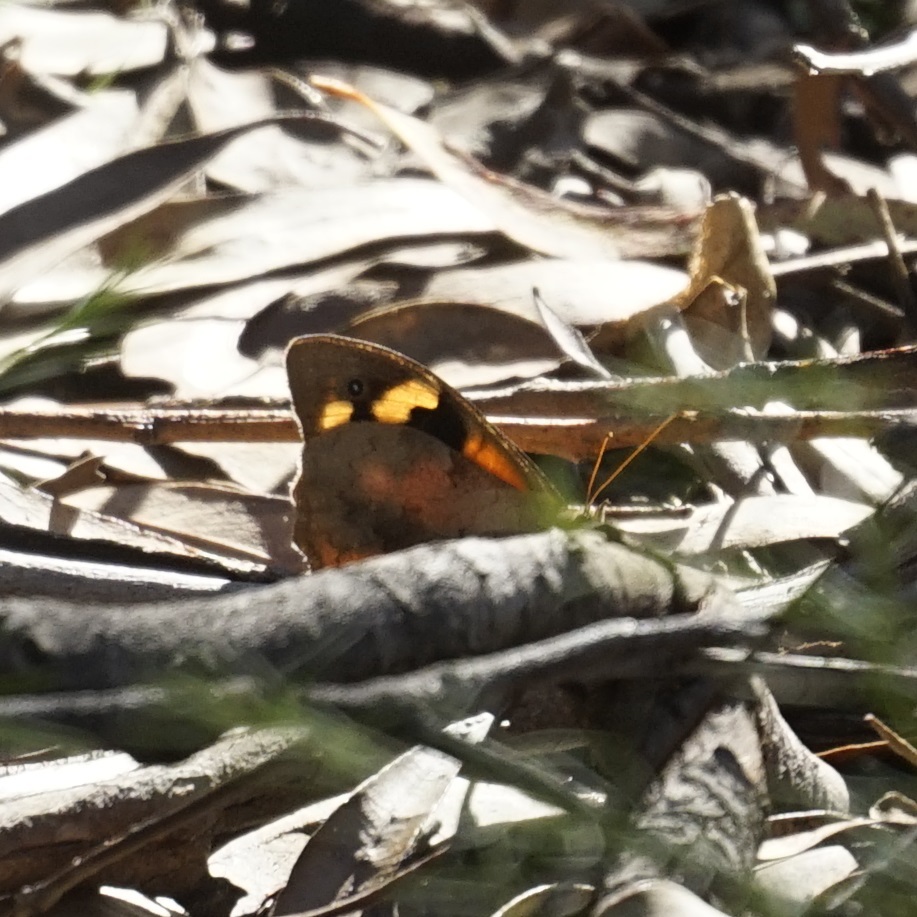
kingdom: Animalia
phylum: Arthropoda
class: Insecta
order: Lepidoptera
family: Nymphalidae
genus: Heteronympha
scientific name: Heteronympha merope
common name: Common brown
